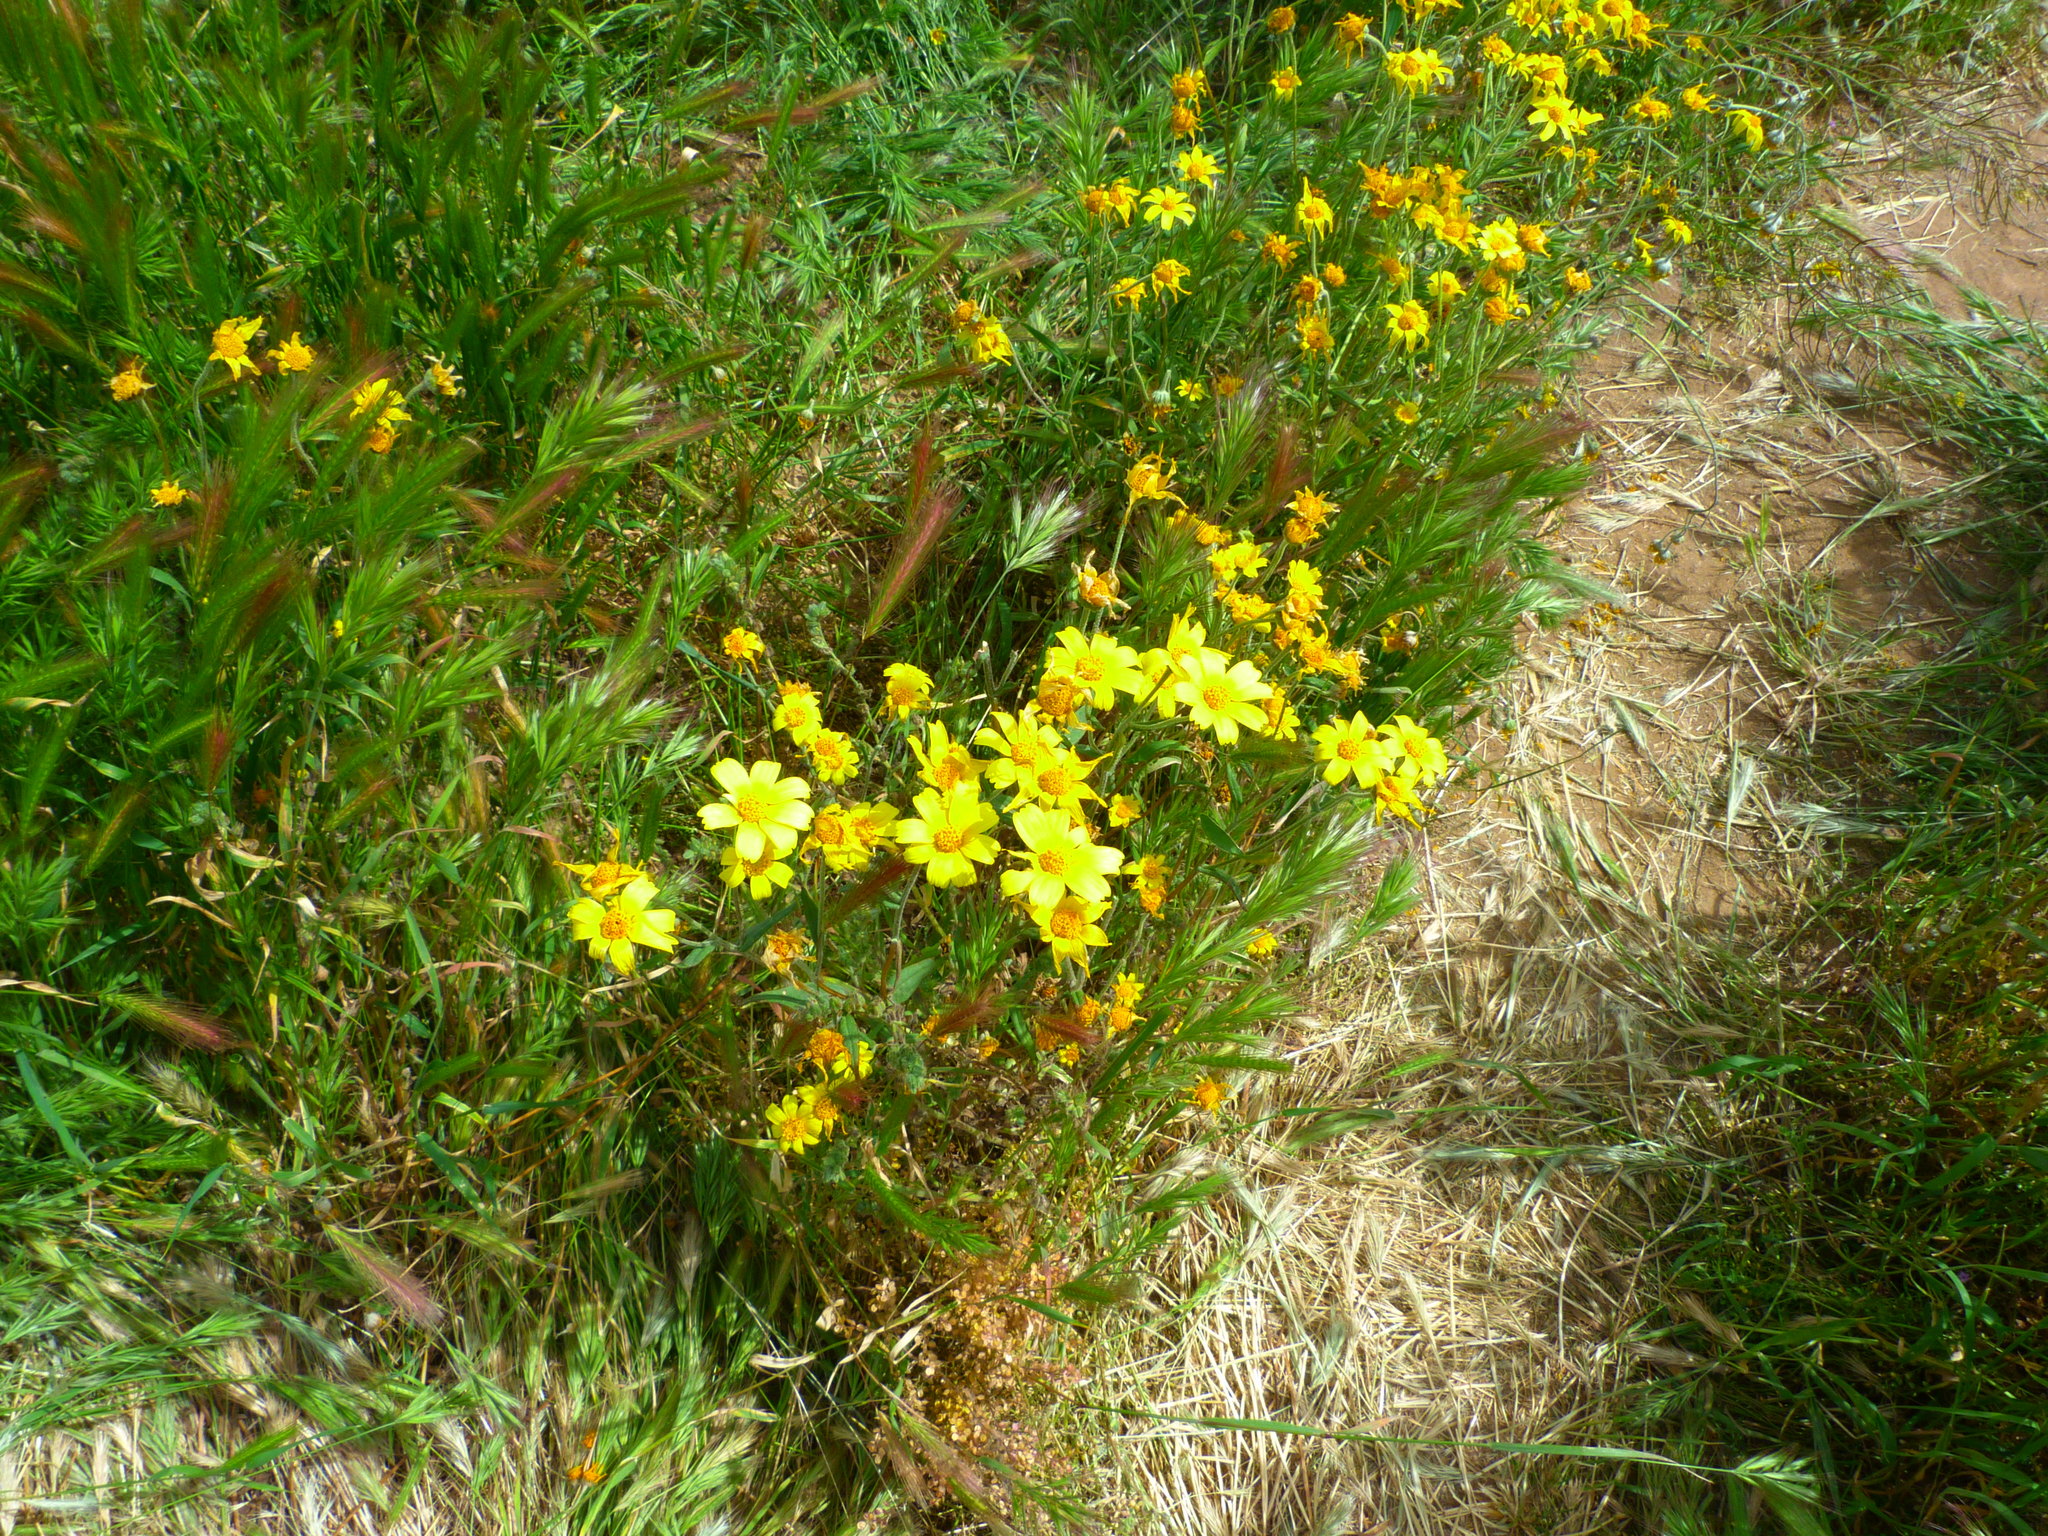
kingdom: Plantae
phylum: Tracheophyta
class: Magnoliopsida
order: Asterales
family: Asteraceae
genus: Monolopia
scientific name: Monolopia lanceolata
